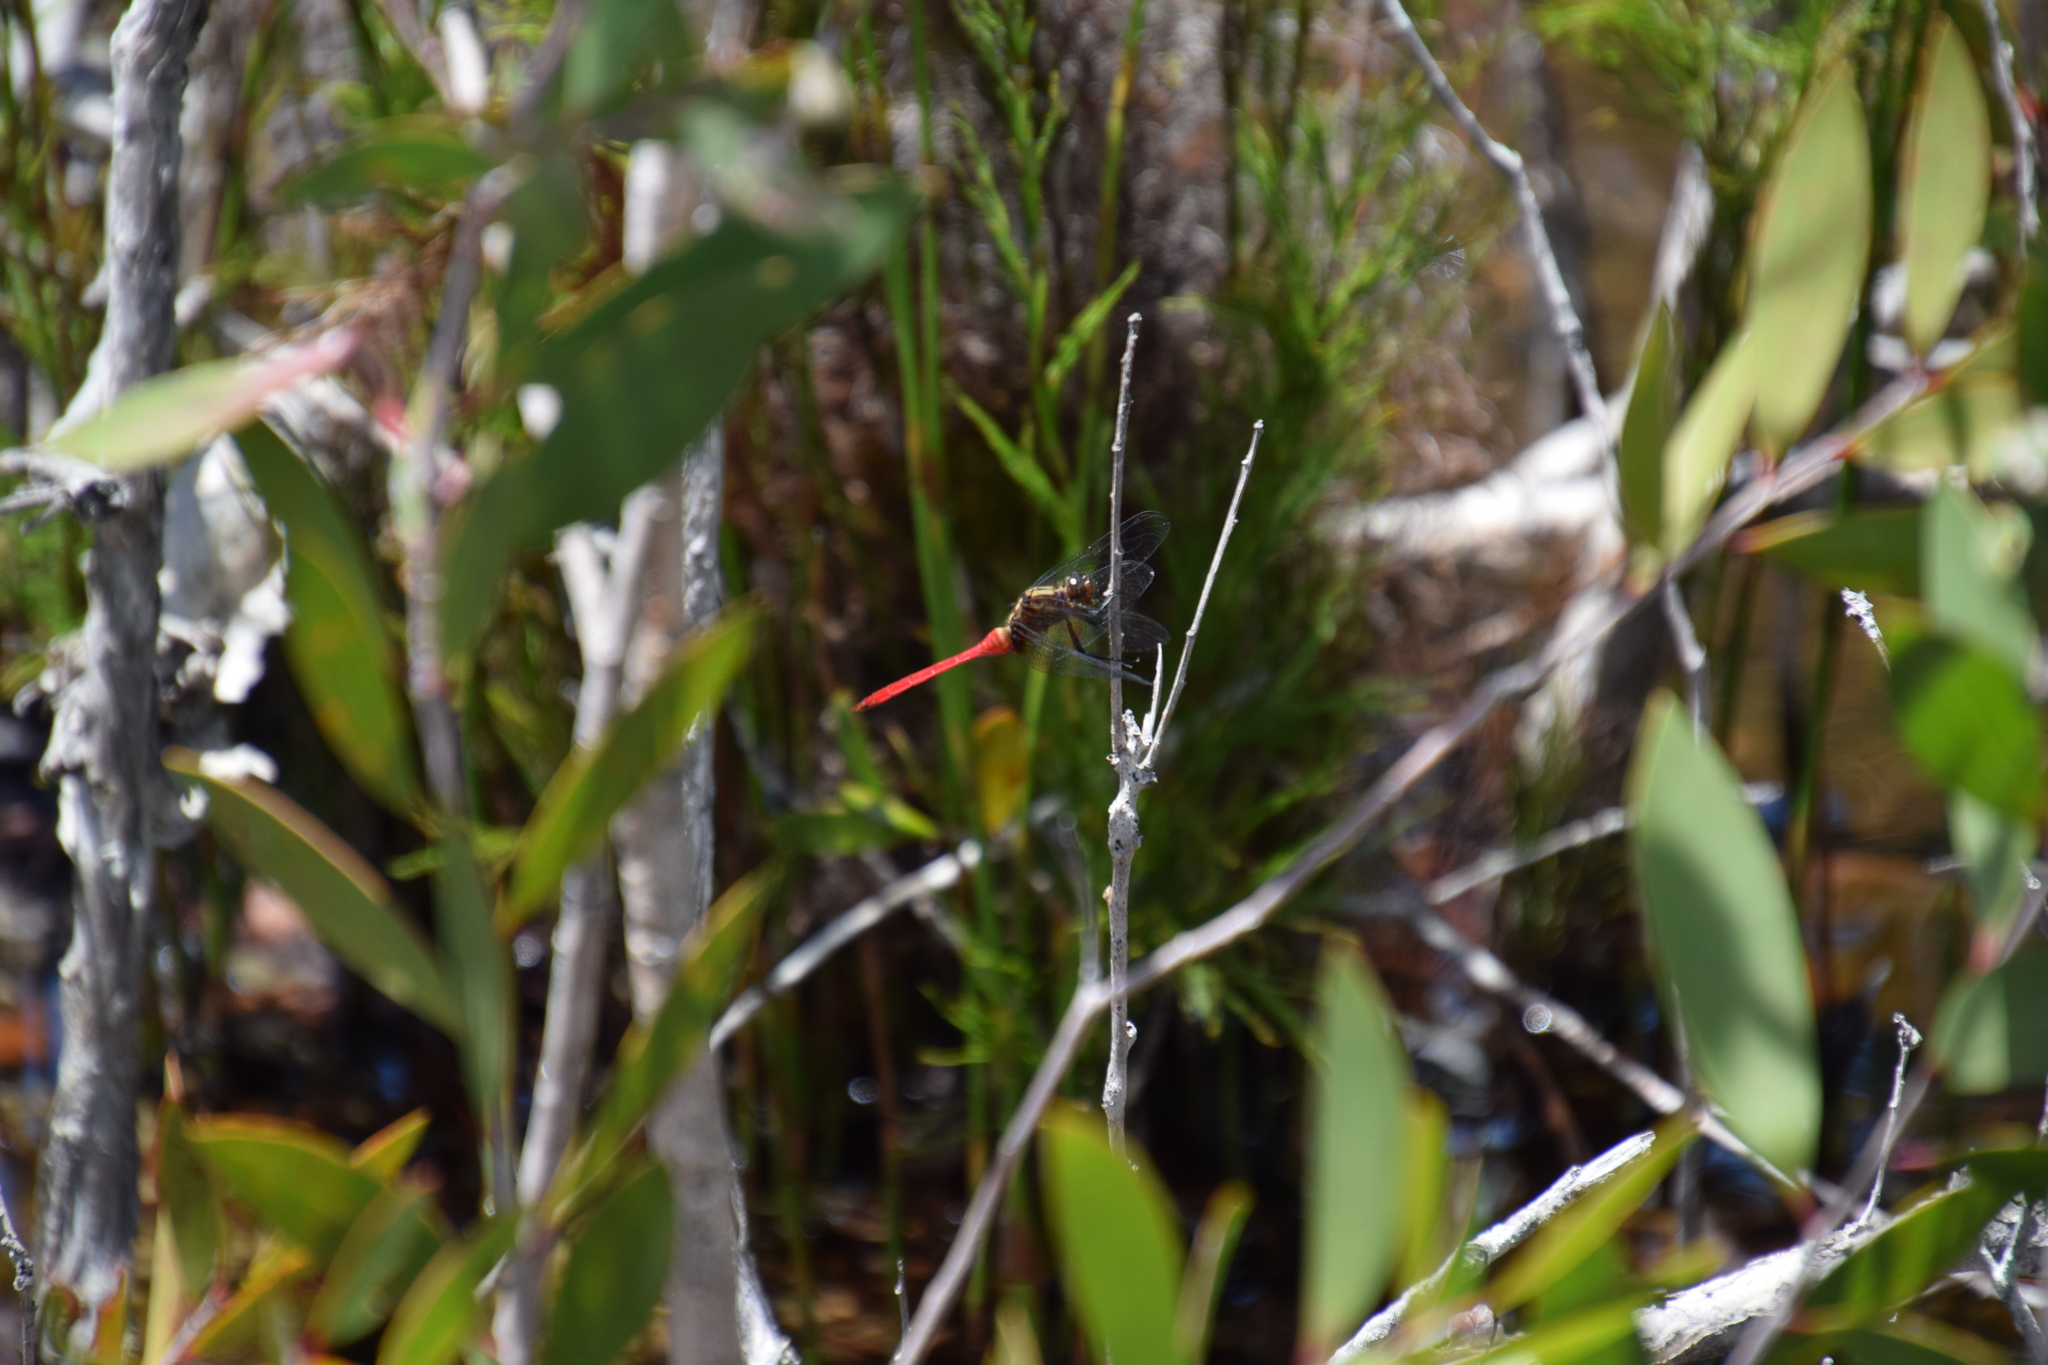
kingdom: Animalia
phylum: Arthropoda
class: Insecta
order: Odonata
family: Libellulidae
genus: Orthetrum
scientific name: Orthetrum villosovittatum
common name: Firery skimmer
